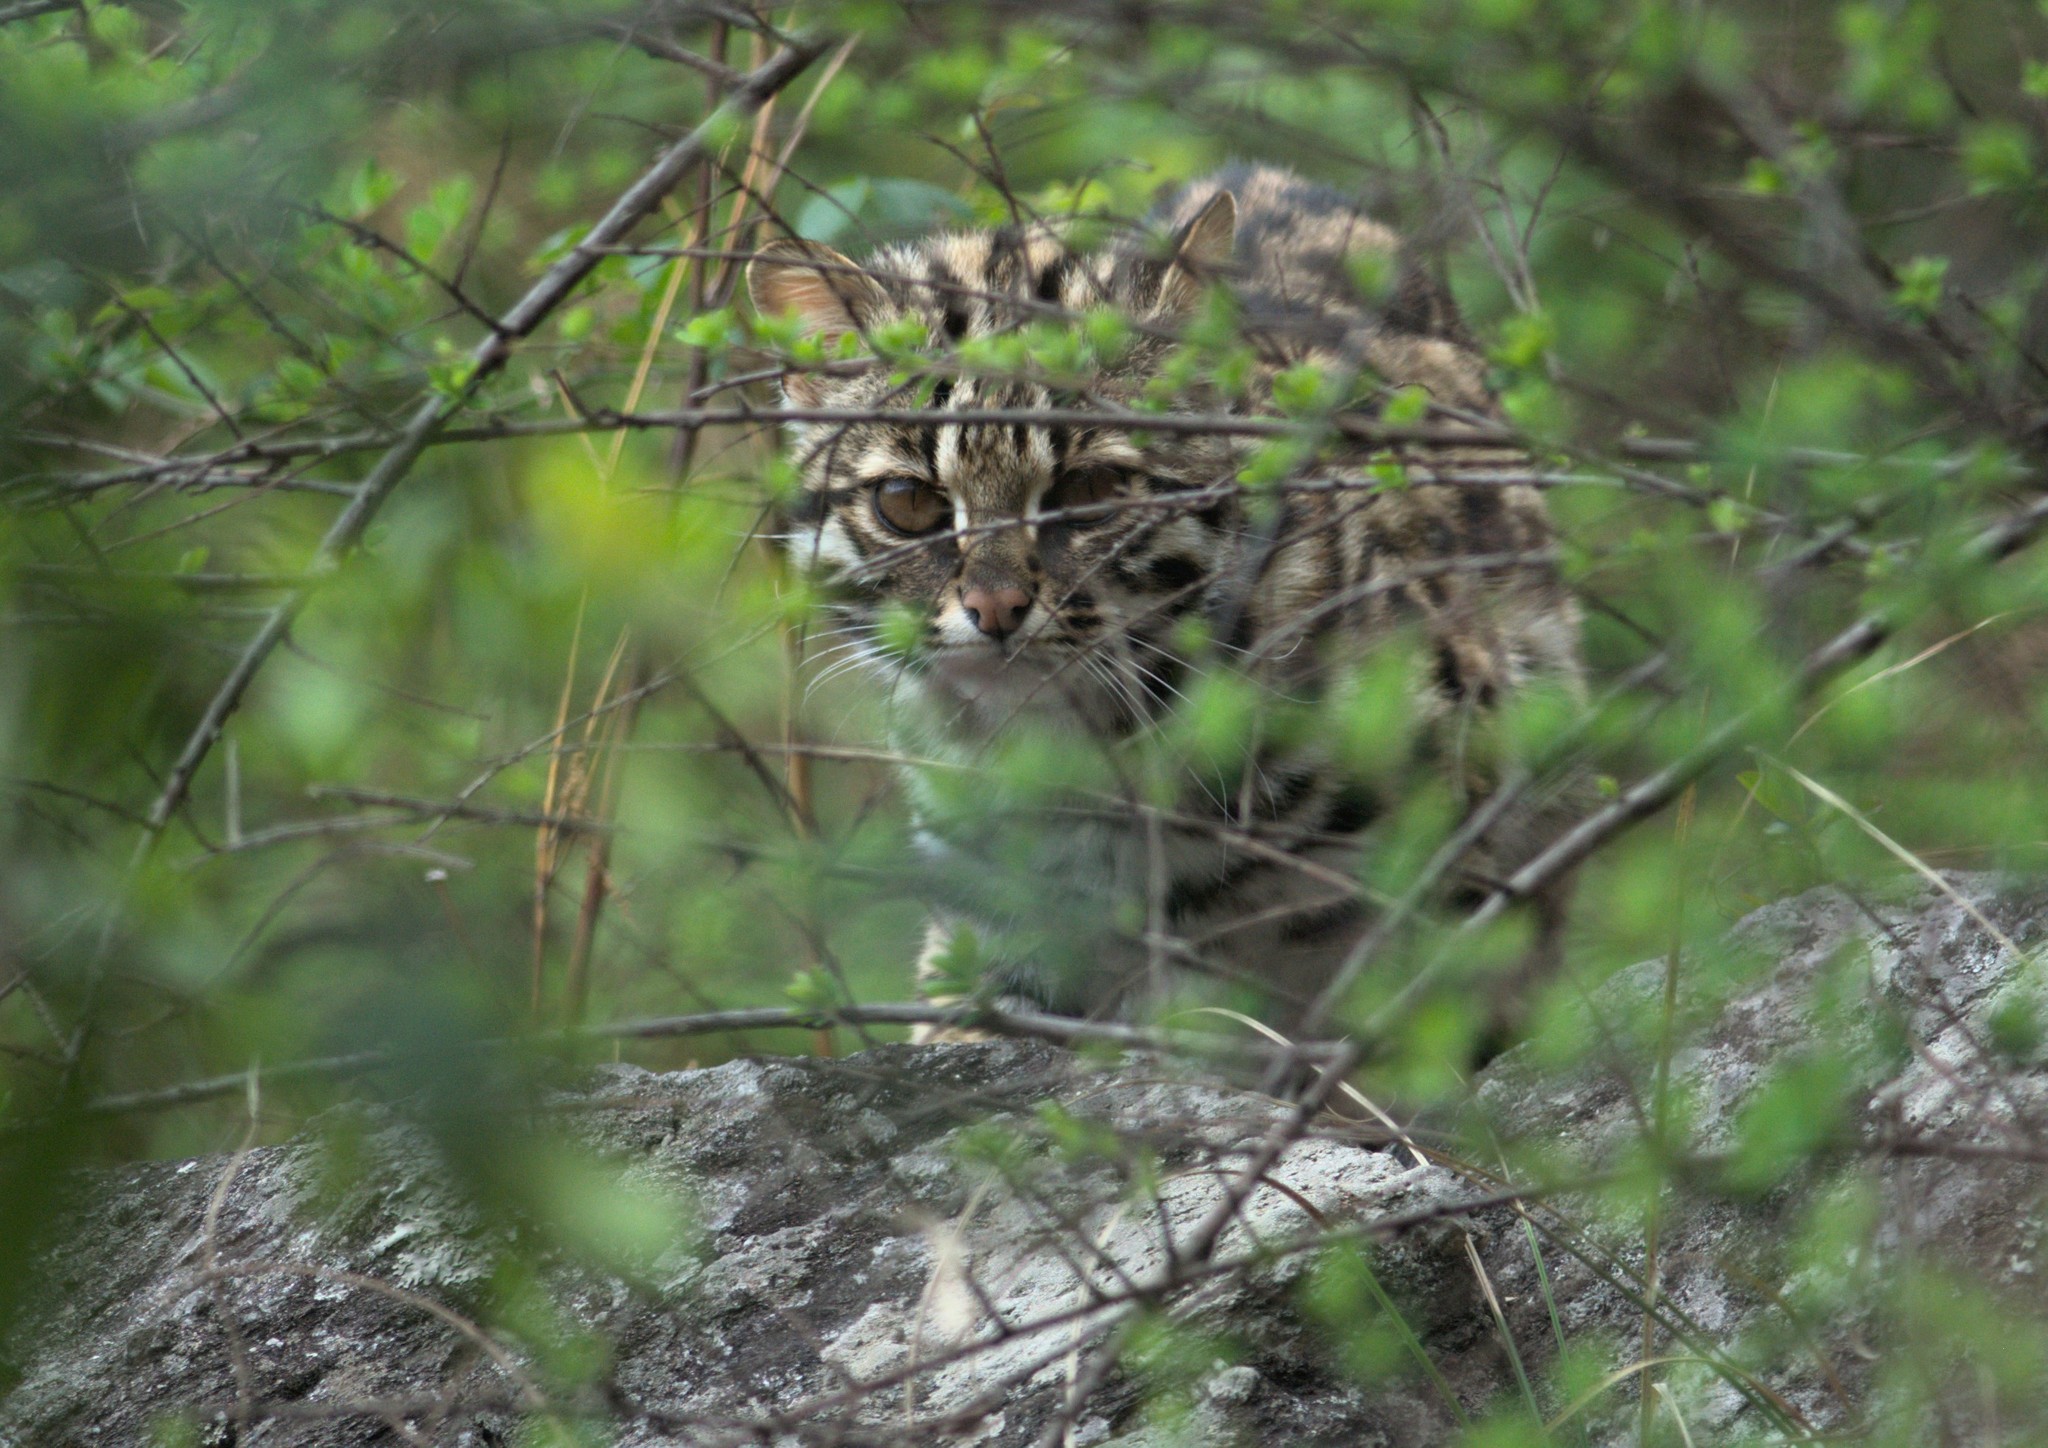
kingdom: Animalia
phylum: Chordata
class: Mammalia
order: Carnivora
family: Felidae
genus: Prionailurus
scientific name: Prionailurus bengalensis
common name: Leopard cat
